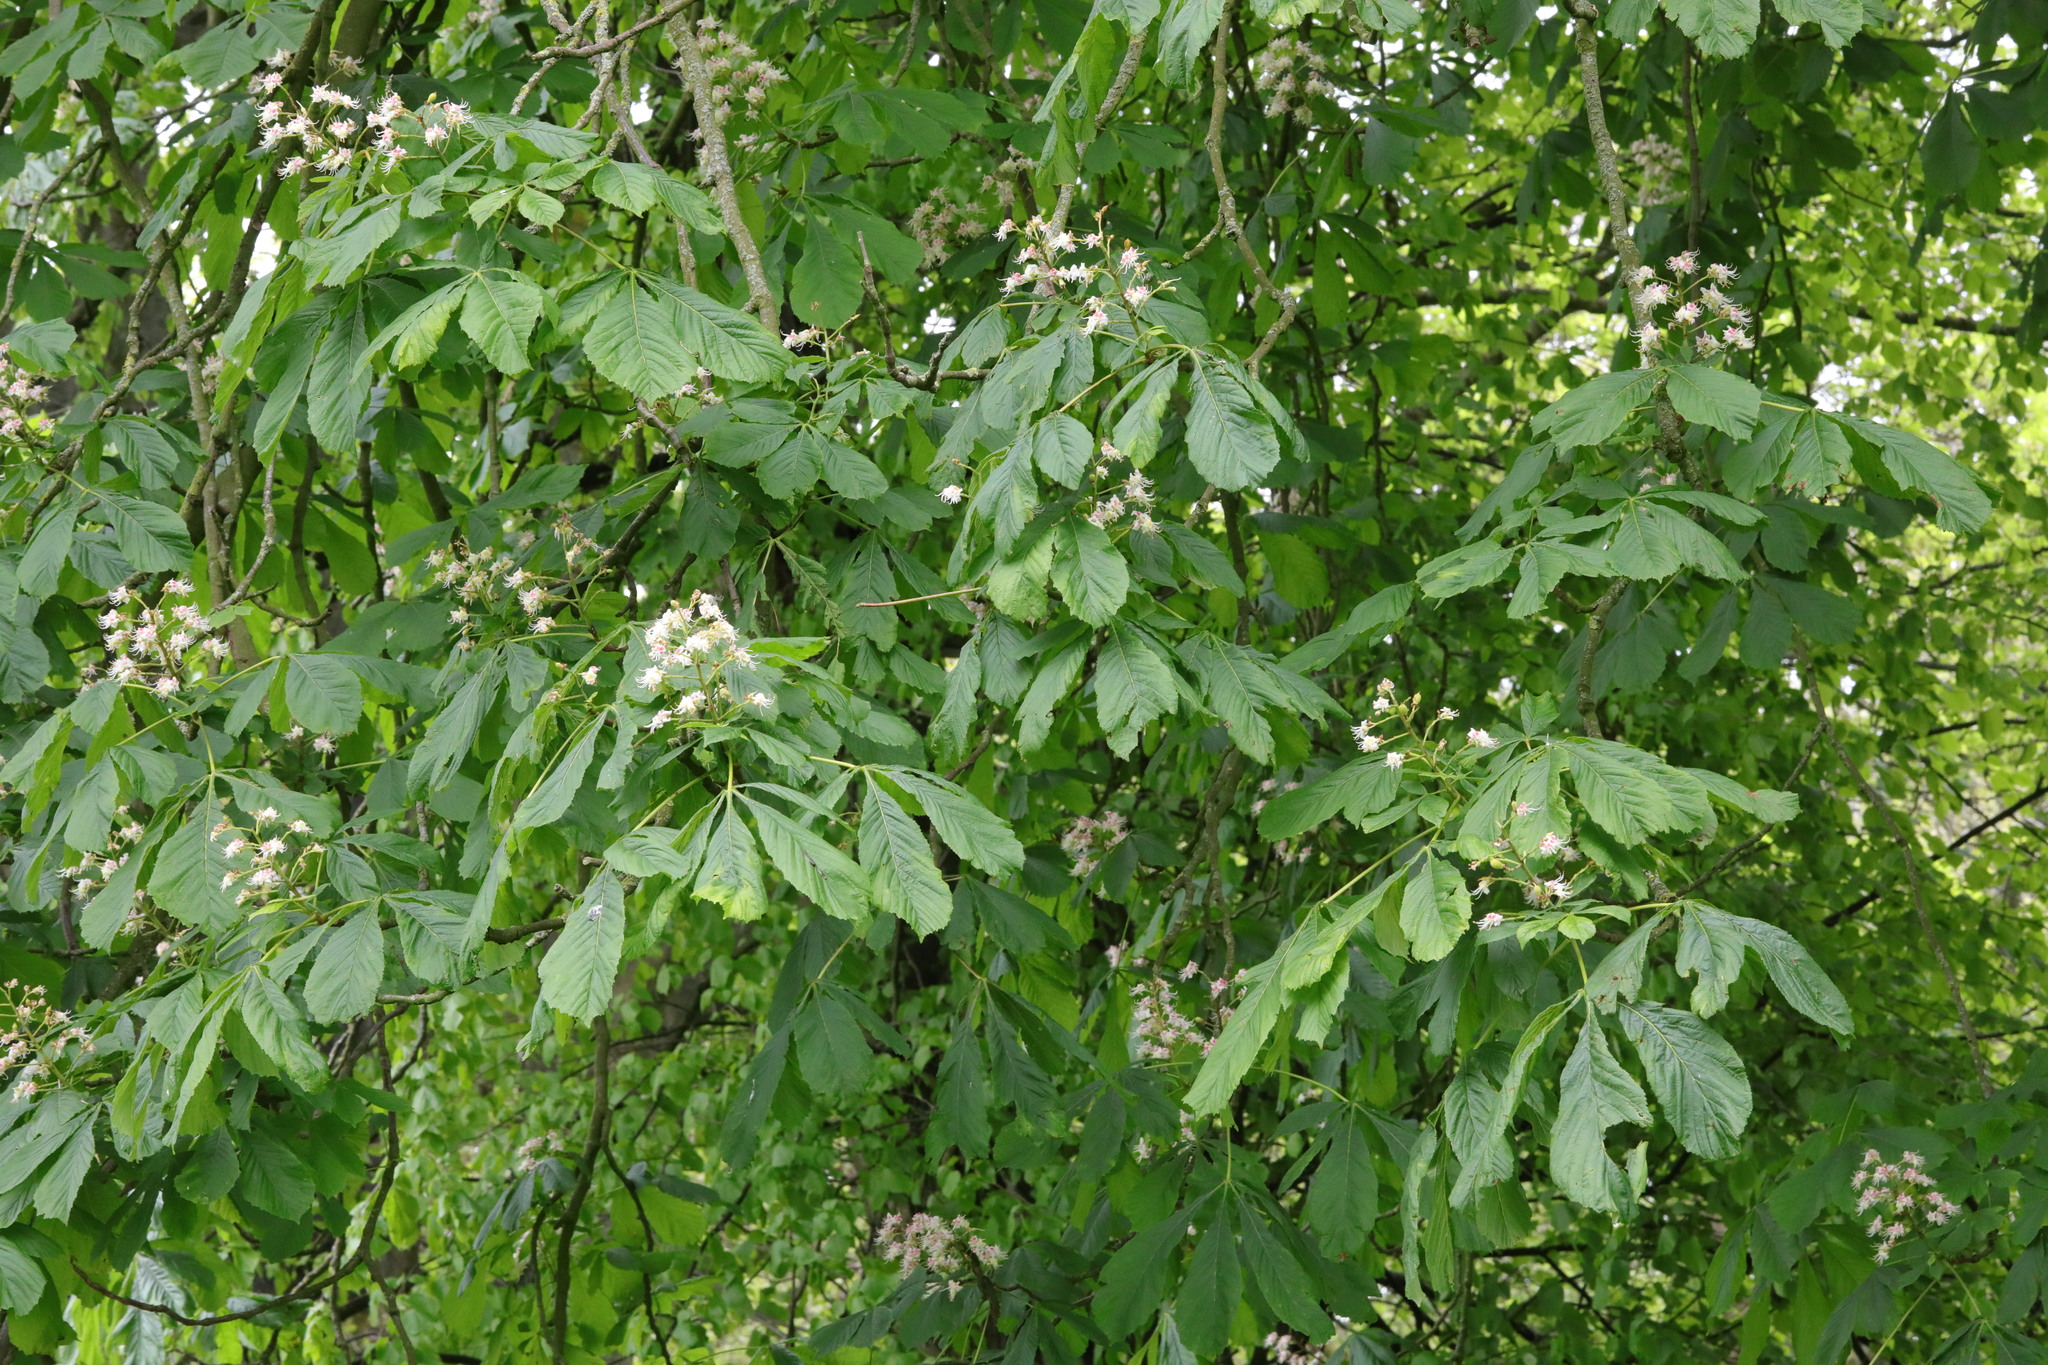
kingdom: Plantae
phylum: Tracheophyta
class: Magnoliopsida
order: Sapindales
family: Sapindaceae
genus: Aesculus
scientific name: Aesculus hippocastanum
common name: Horse-chestnut
